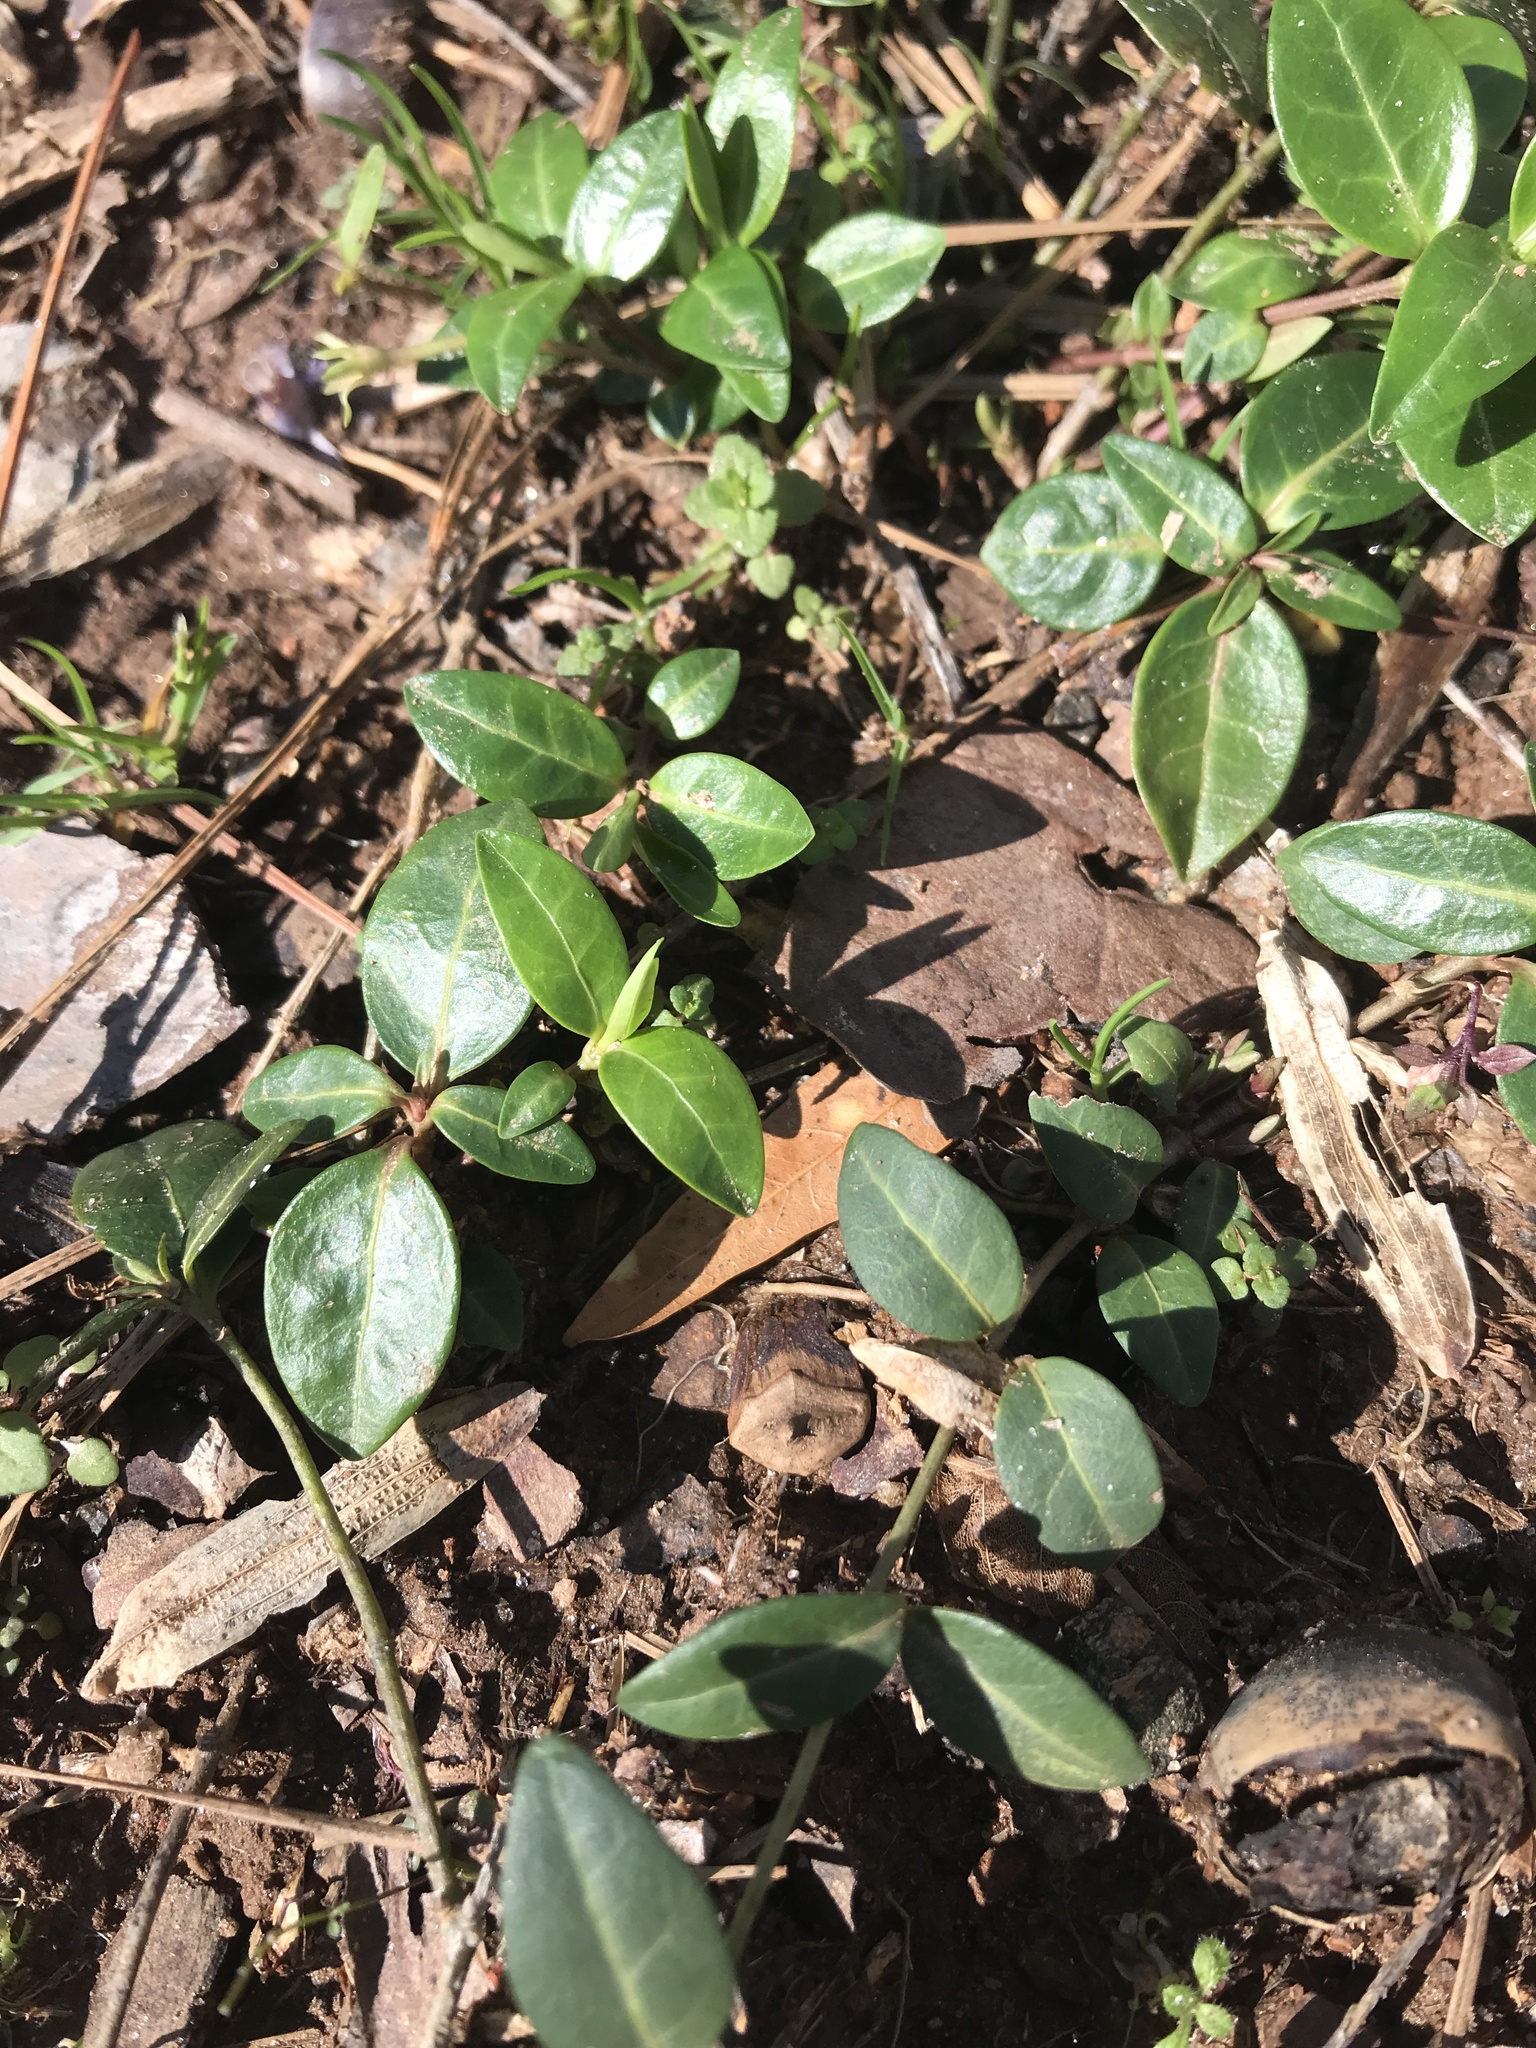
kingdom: Plantae
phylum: Tracheophyta
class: Magnoliopsida
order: Gentianales
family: Apocynaceae
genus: Vinca
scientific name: Vinca minor
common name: Lesser periwinkle
